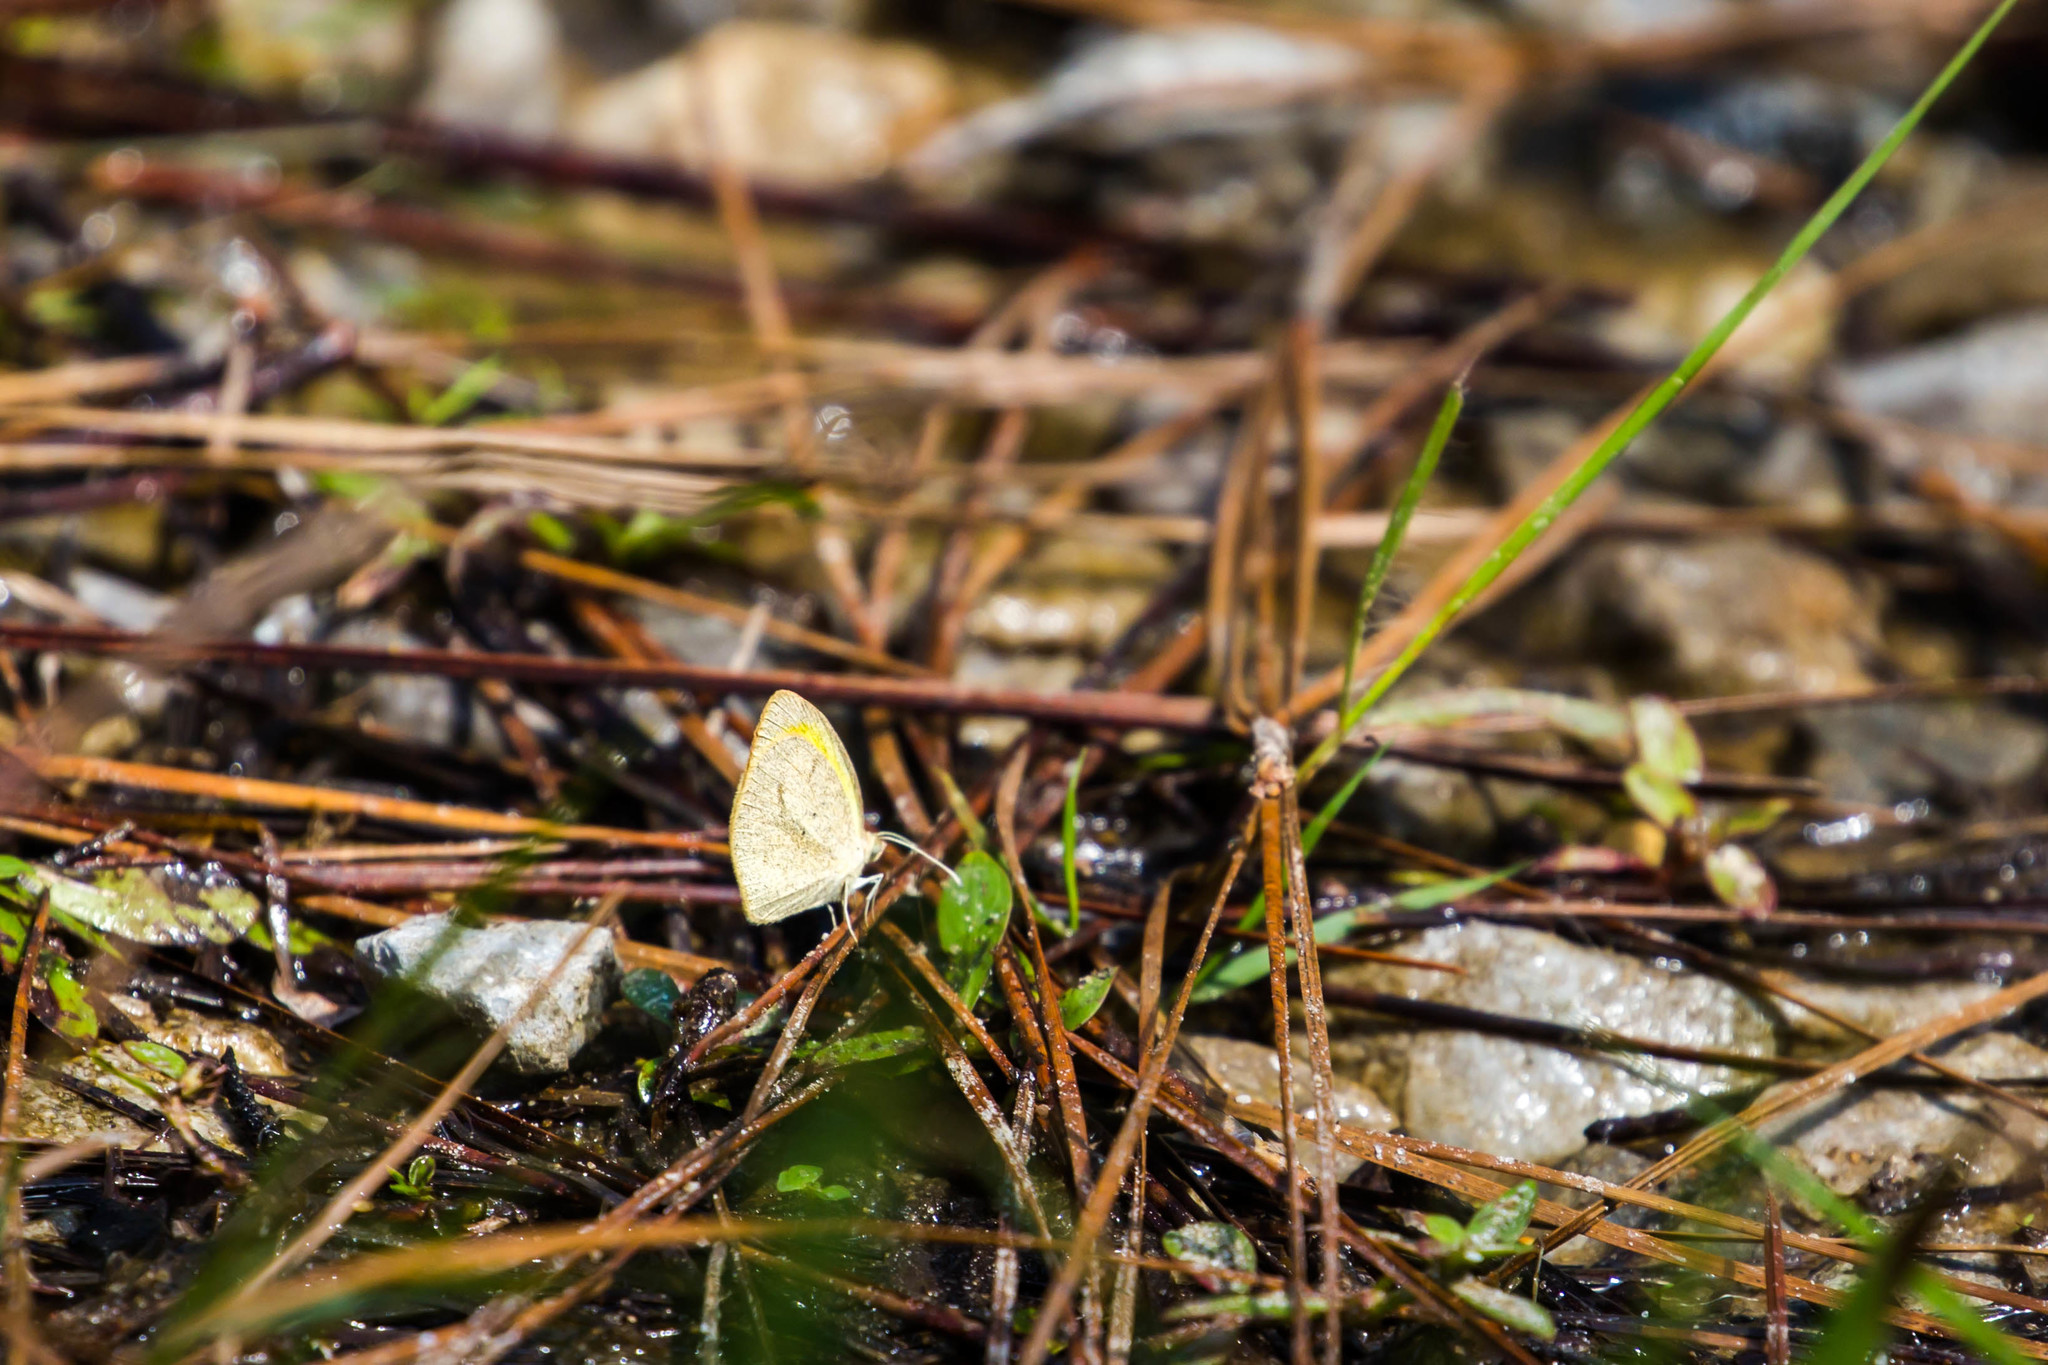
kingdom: Animalia
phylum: Arthropoda
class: Insecta
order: Lepidoptera
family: Pieridae
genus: Eurema
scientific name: Eurema daira
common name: Barred sulphur
